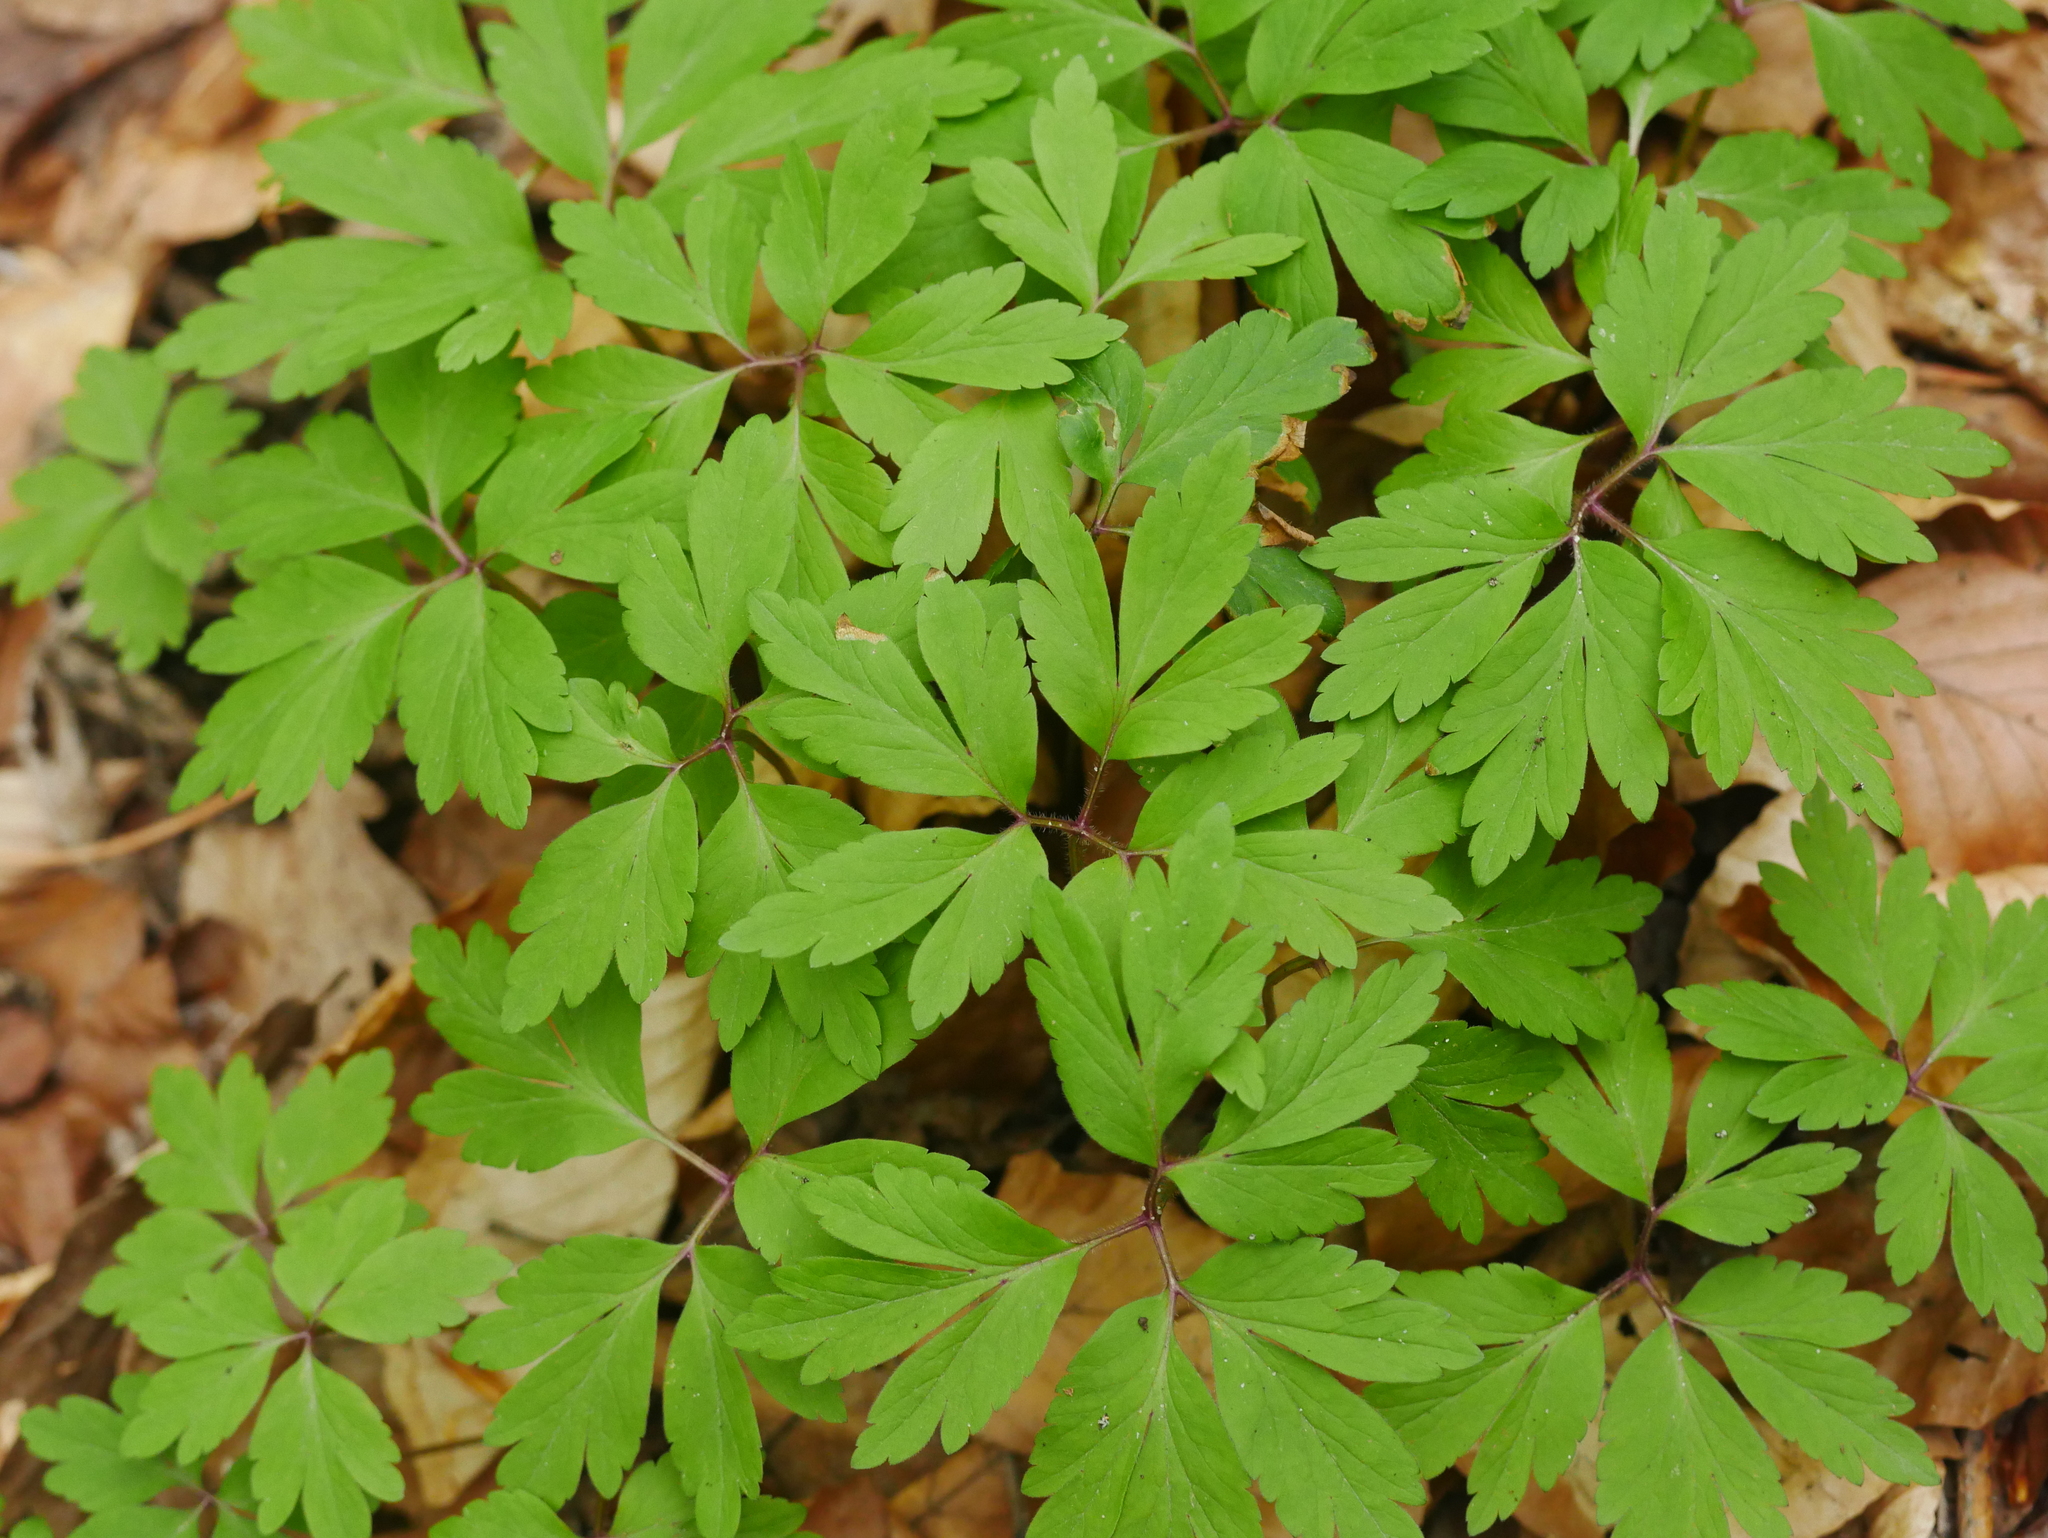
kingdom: Plantae
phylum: Tracheophyta
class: Magnoliopsida
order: Ranunculales
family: Ranunculaceae
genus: Anemone
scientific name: Anemone nemorosa
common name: Wood anemone
